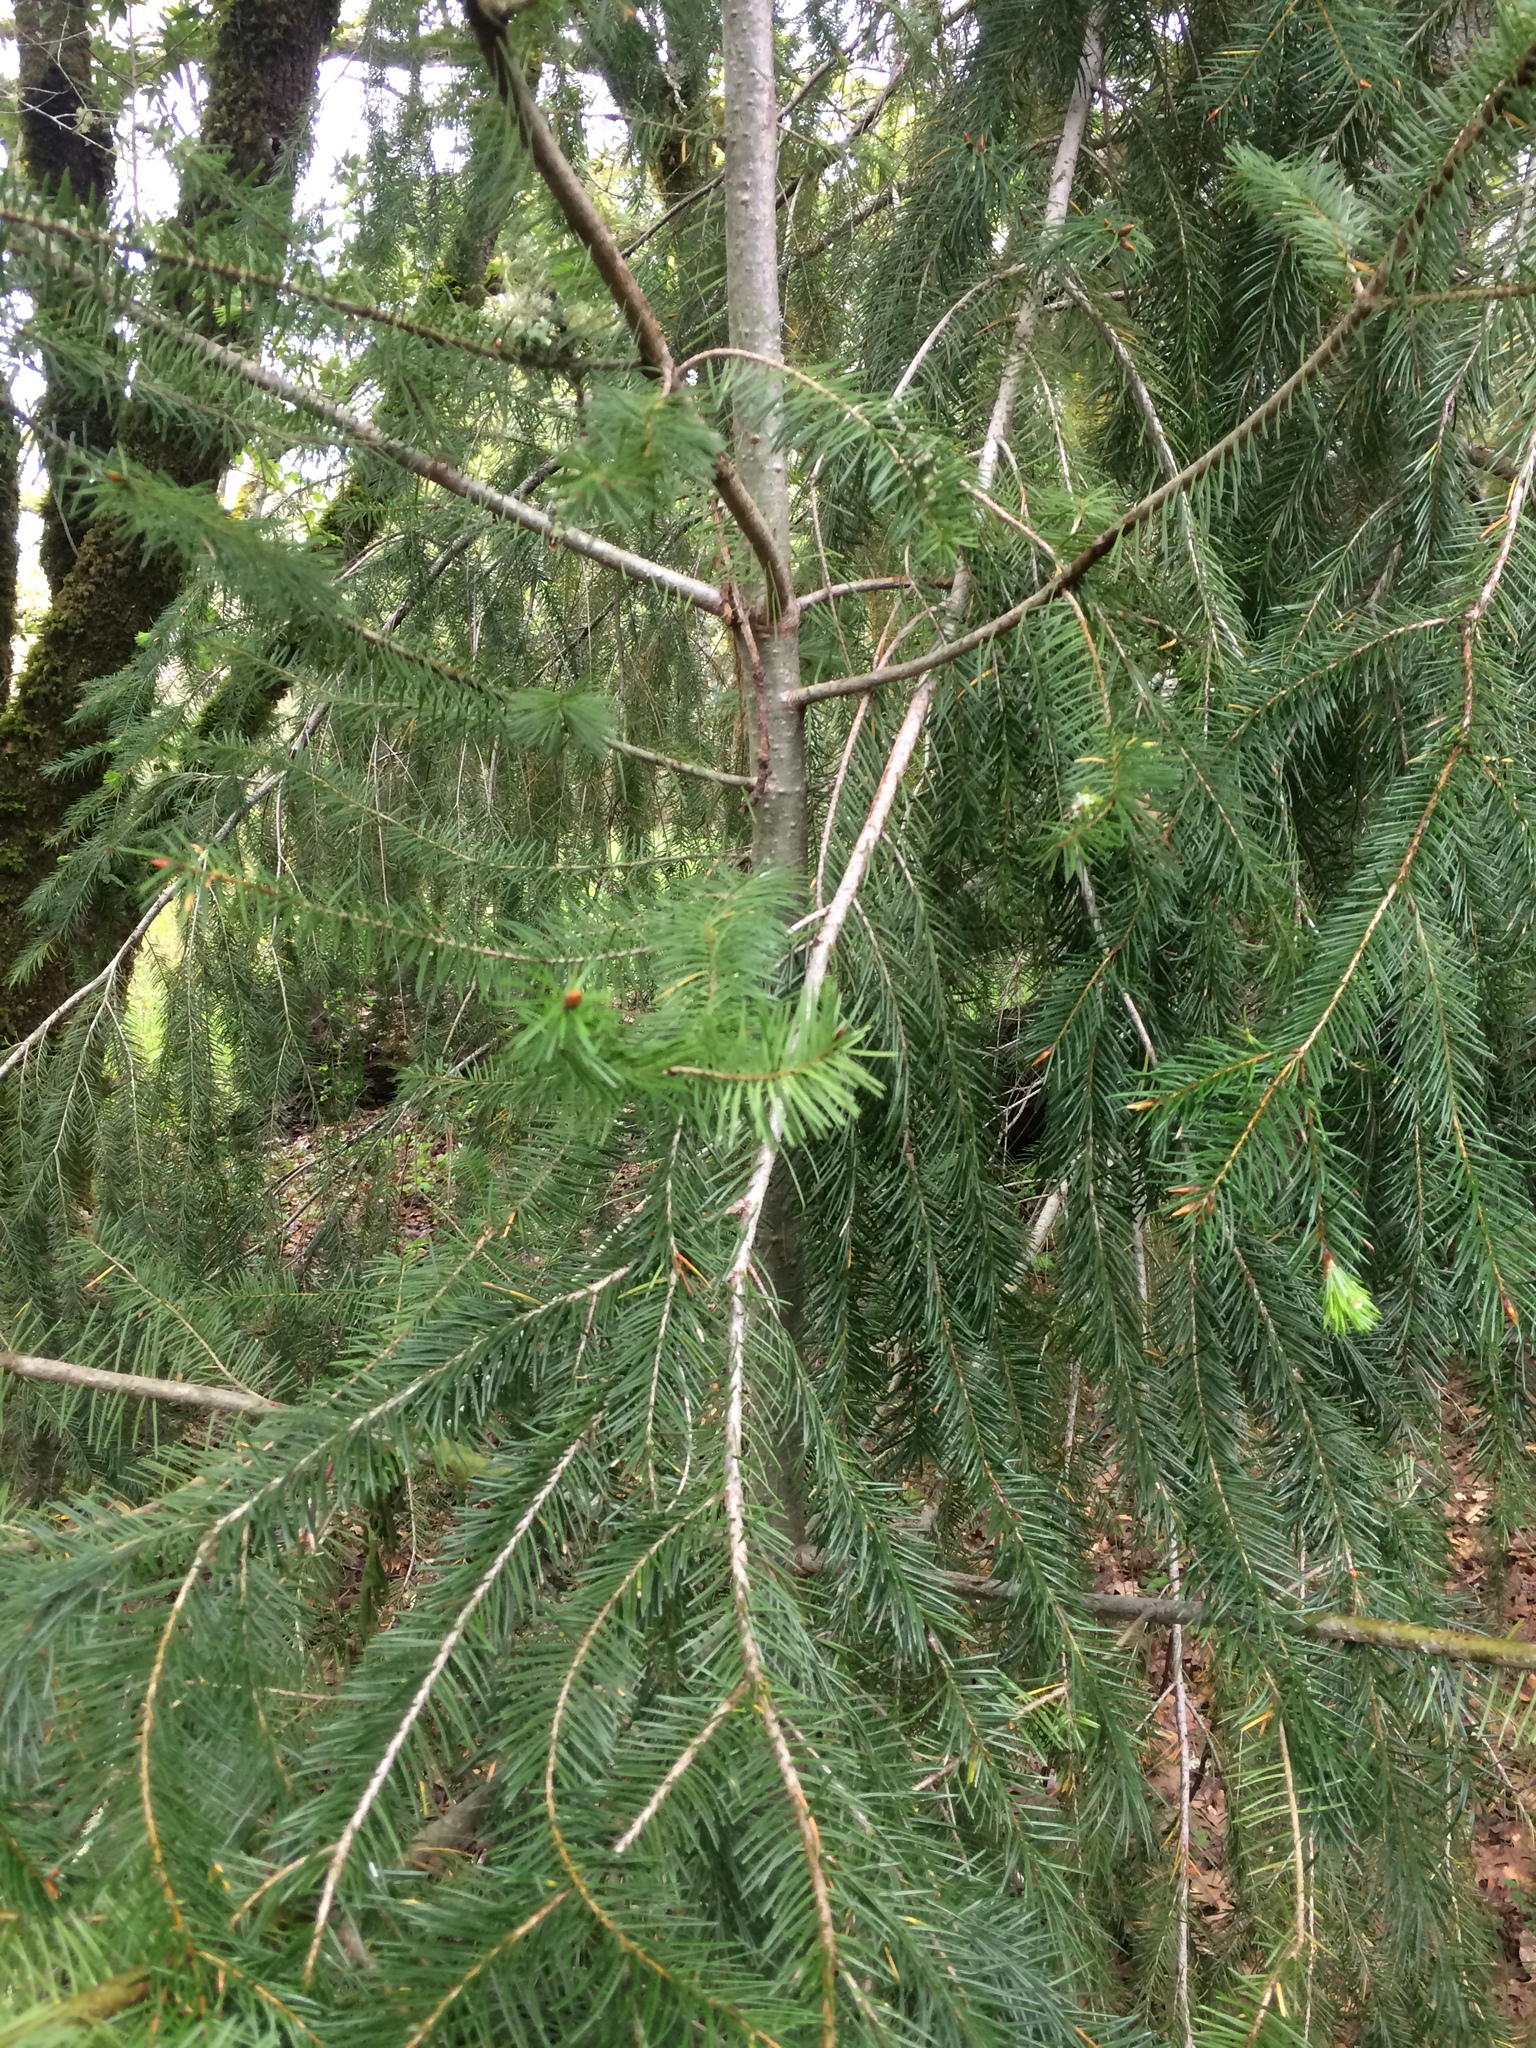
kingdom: Plantae
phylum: Tracheophyta
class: Pinopsida
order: Pinales
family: Pinaceae
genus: Pseudotsuga
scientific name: Pseudotsuga menziesii
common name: Douglas fir
